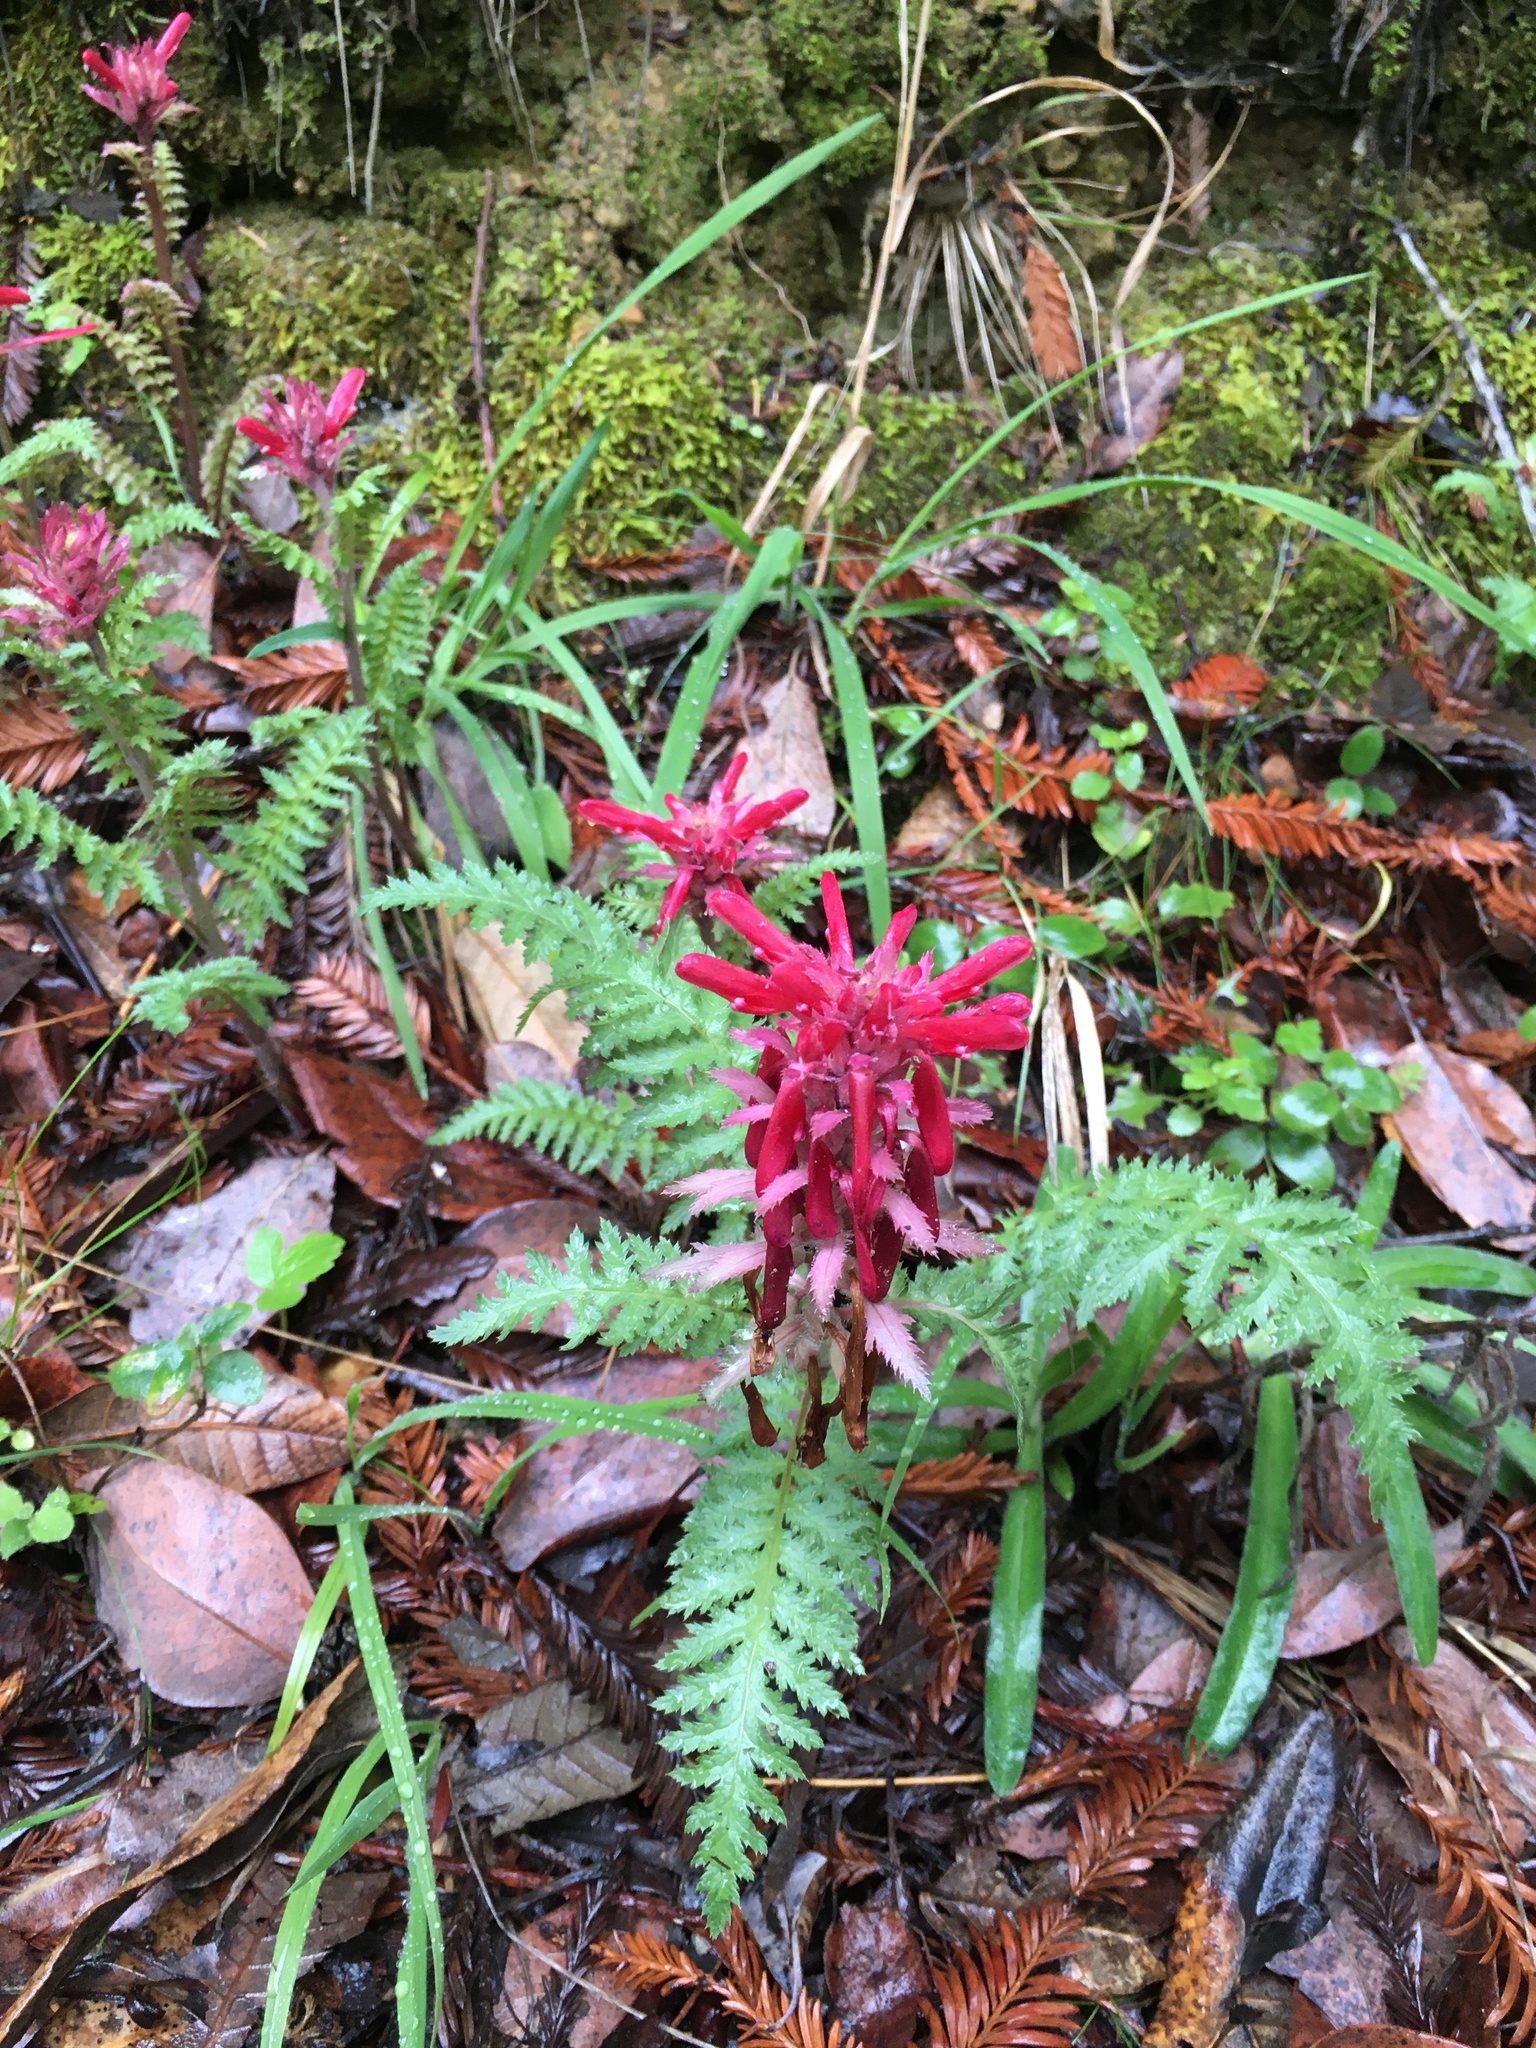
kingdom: Plantae
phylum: Tracheophyta
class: Magnoliopsida
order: Lamiales
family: Orobanchaceae
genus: Pedicularis
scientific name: Pedicularis densiflora
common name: Indian warrior
